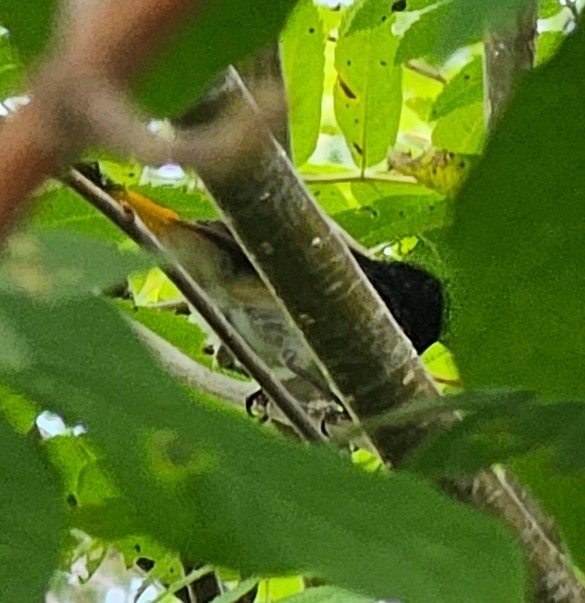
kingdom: Animalia
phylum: Chordata
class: Aves
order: Passeriformes
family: Parulidae
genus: Setophaga
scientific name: Setophaga ruticilla
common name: American redstart
